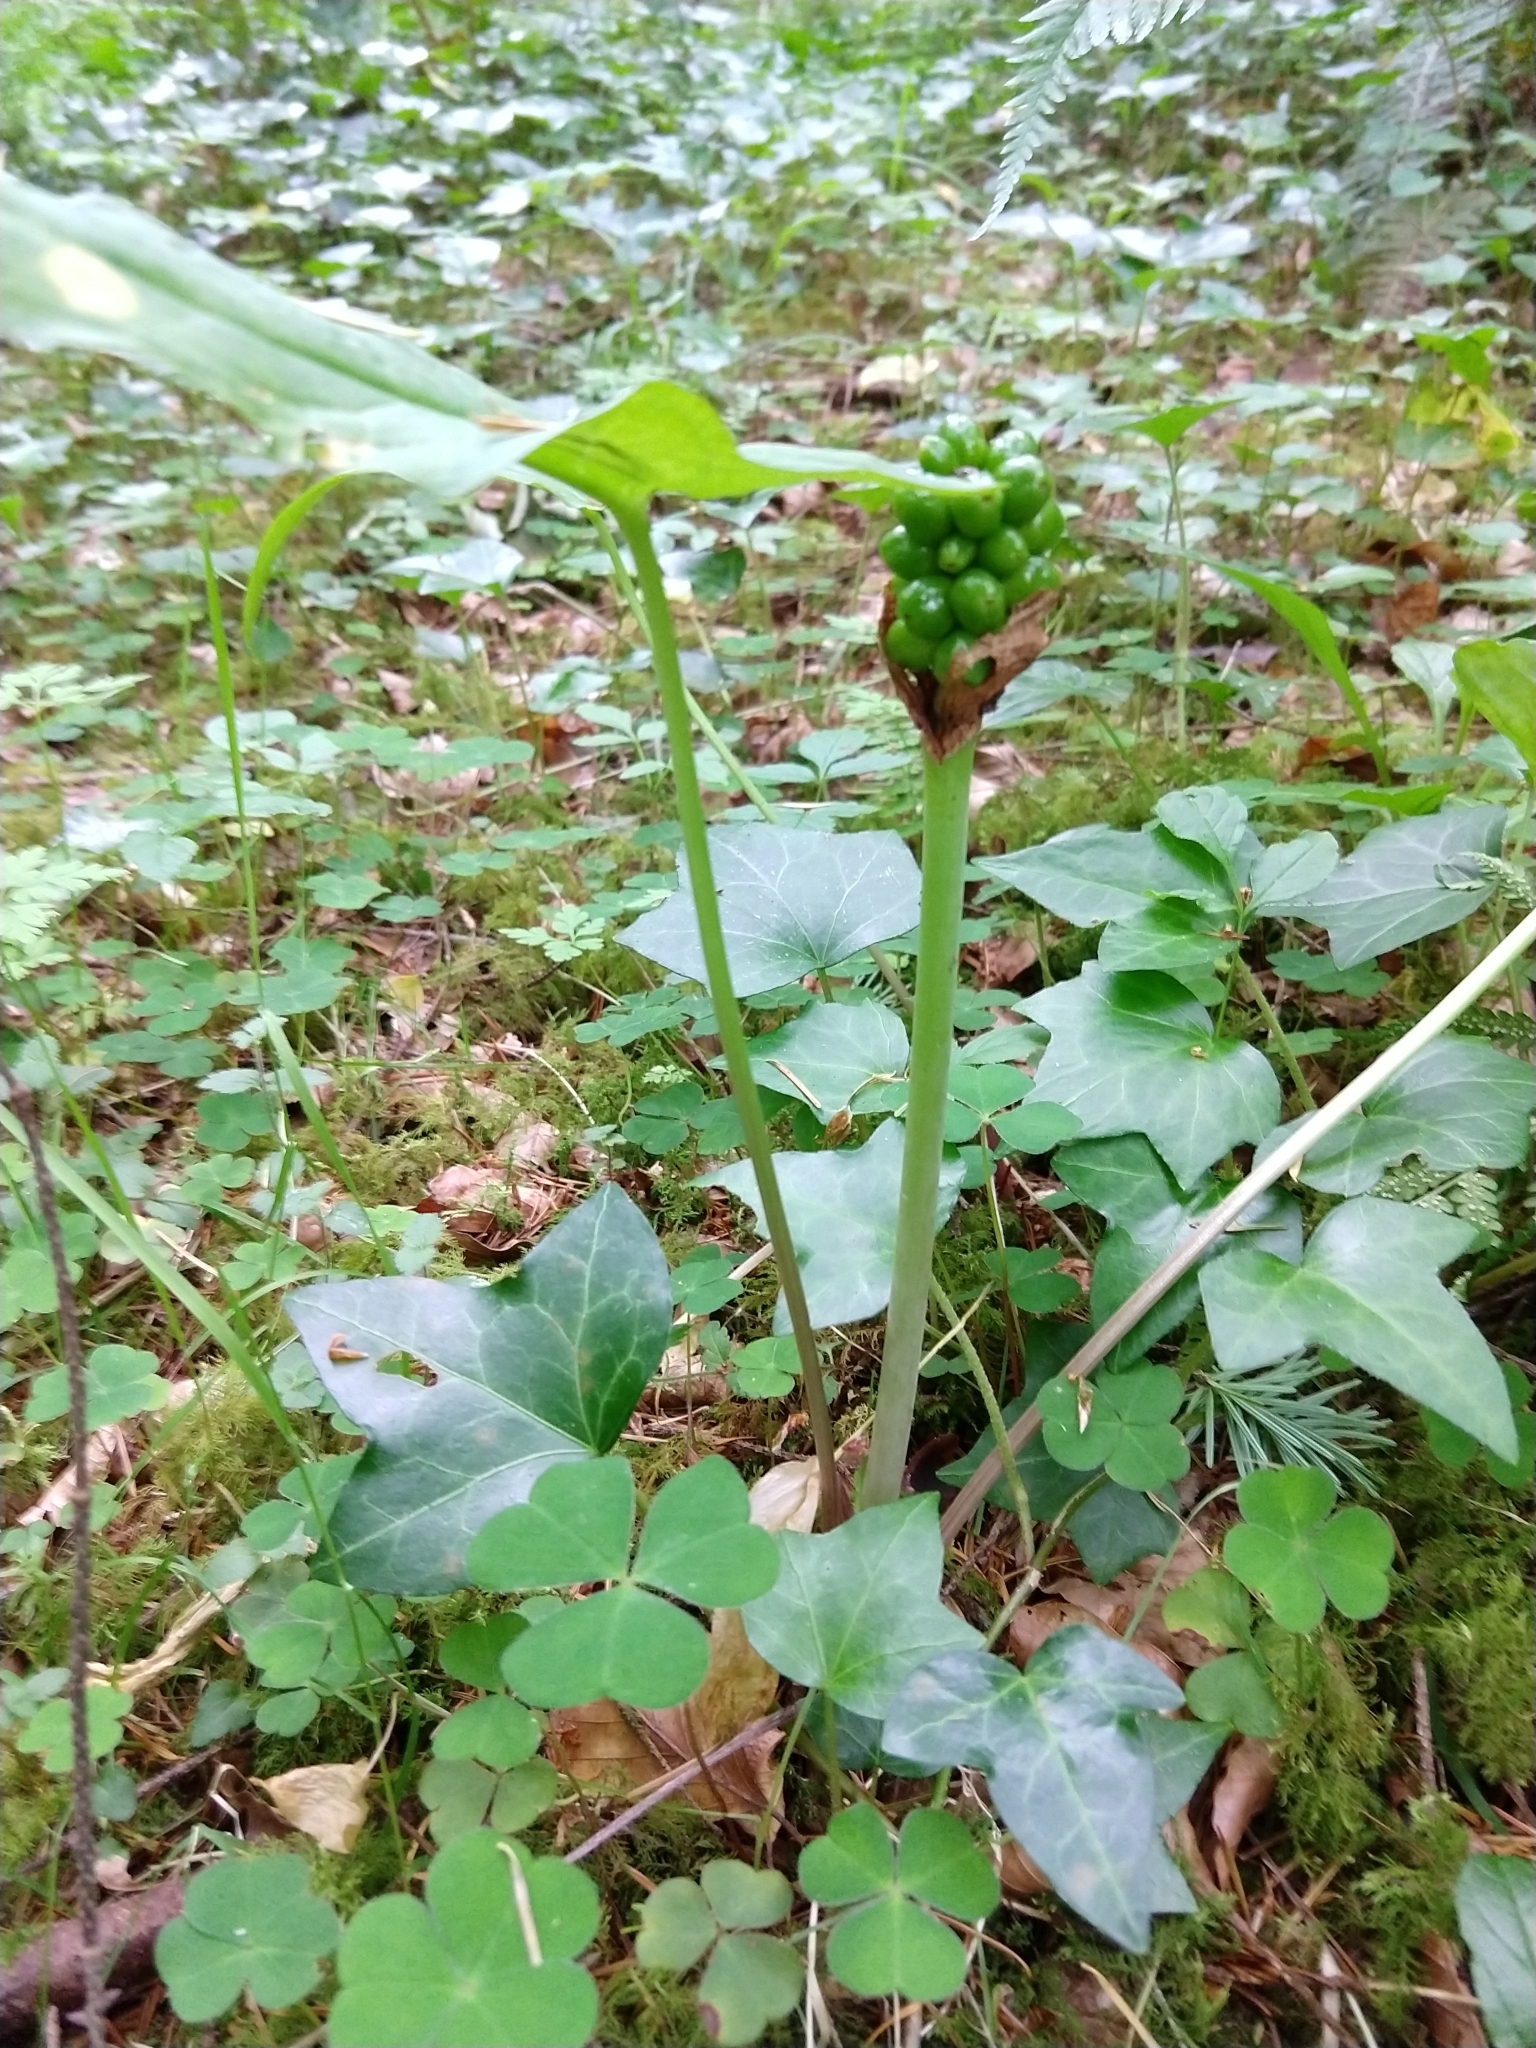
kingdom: Plantae
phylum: Tracheophyta
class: Liliopsida
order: Alismatales
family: Araceae
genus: Arum
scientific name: Arum maculatum
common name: Lords-and-ladies
